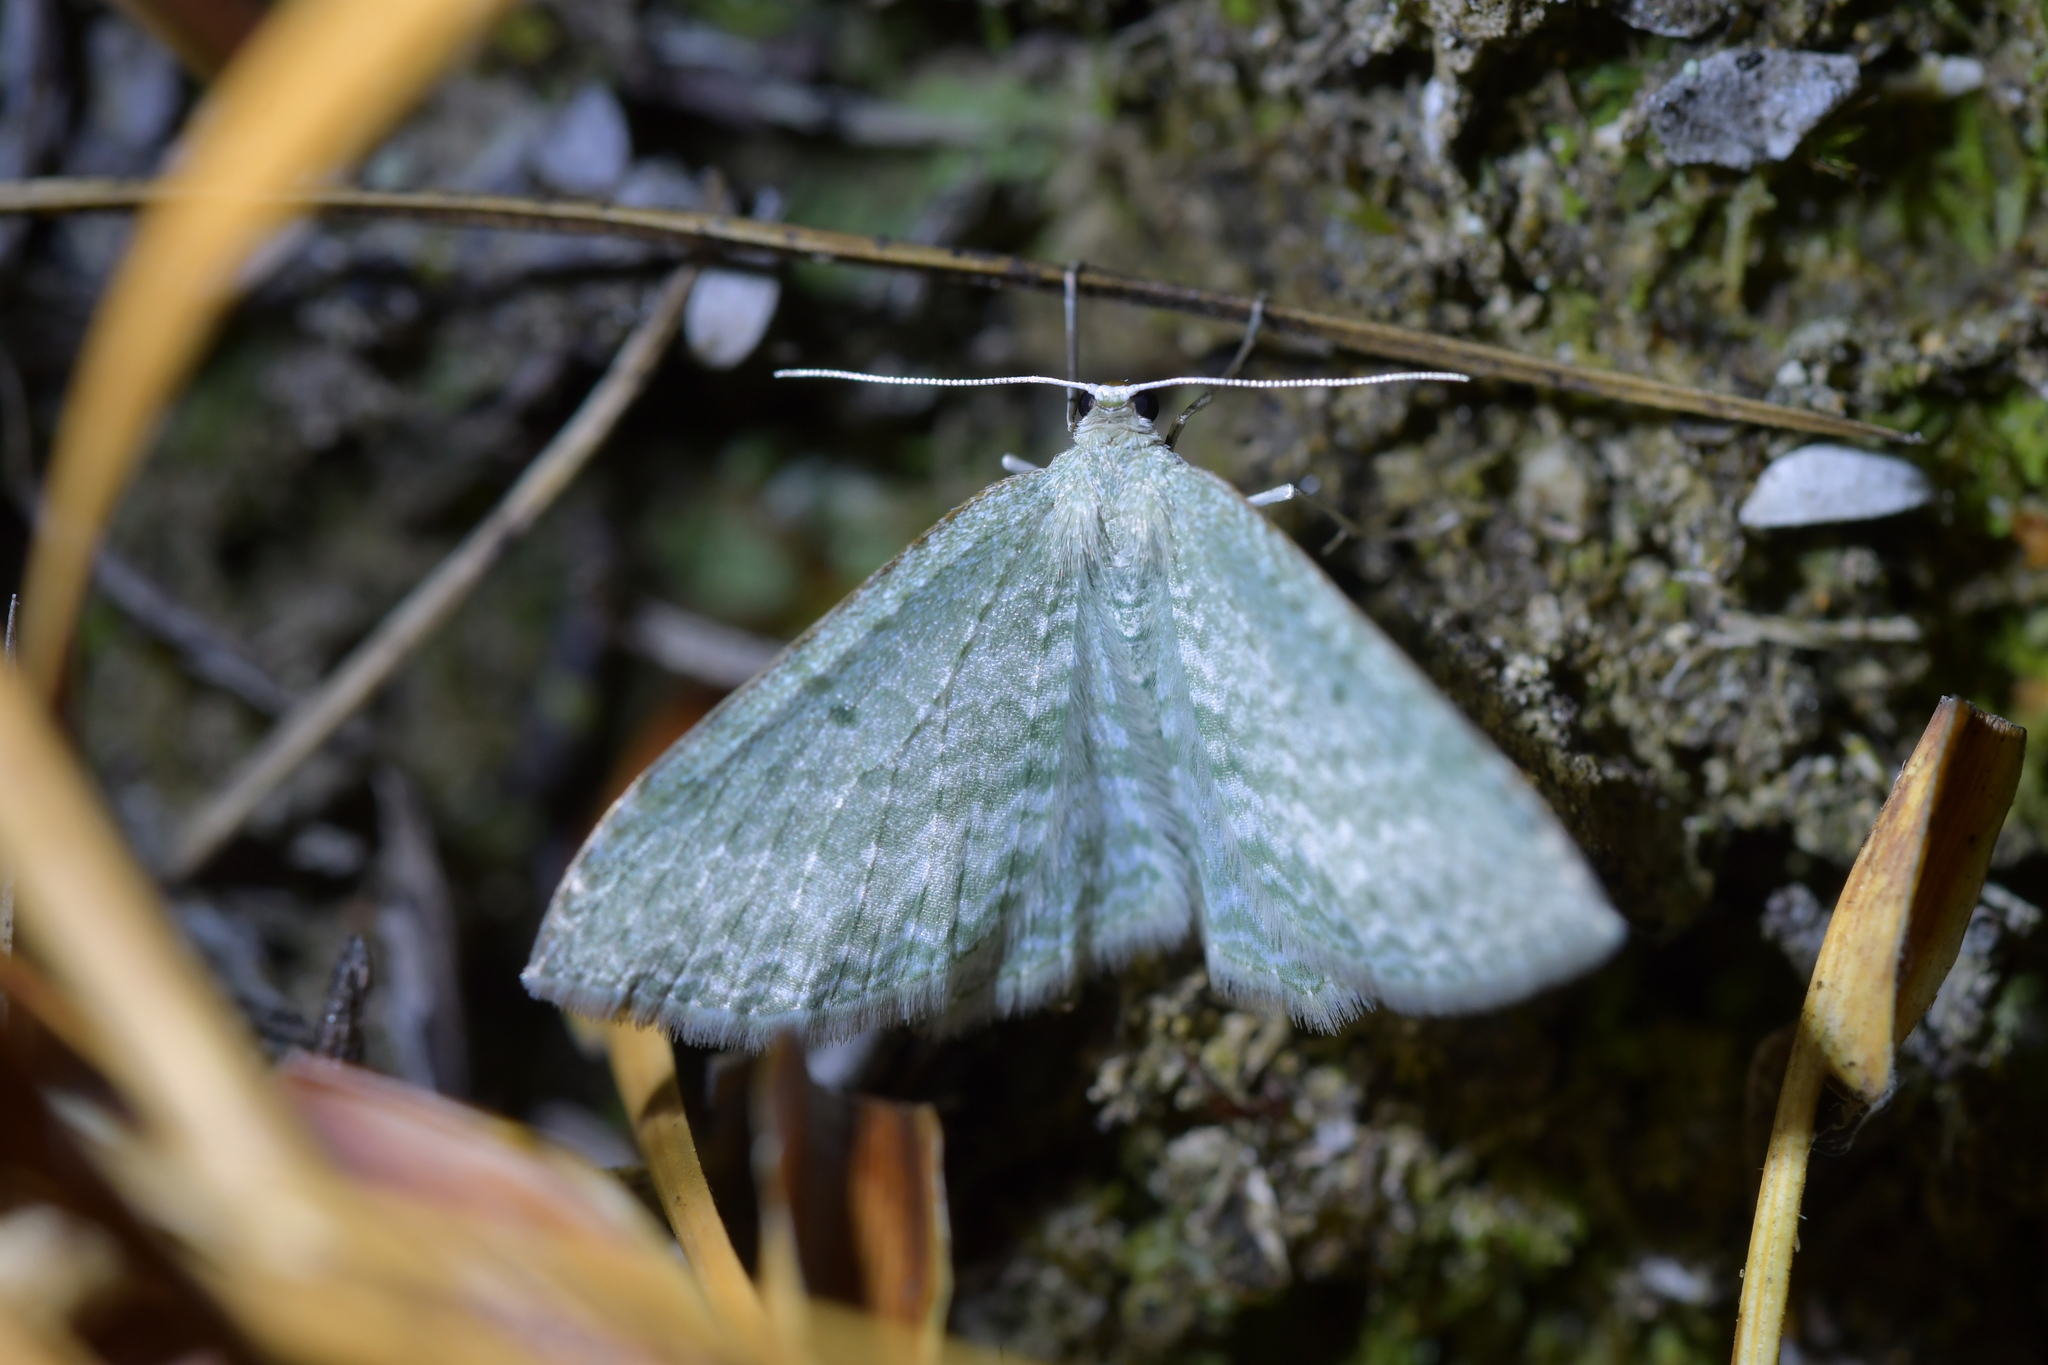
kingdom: Animalia
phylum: Arthropoda
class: Insecta
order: Lepidoptera
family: Geometridae
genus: Poecilasthena
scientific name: Poecilasthena pulchraria
